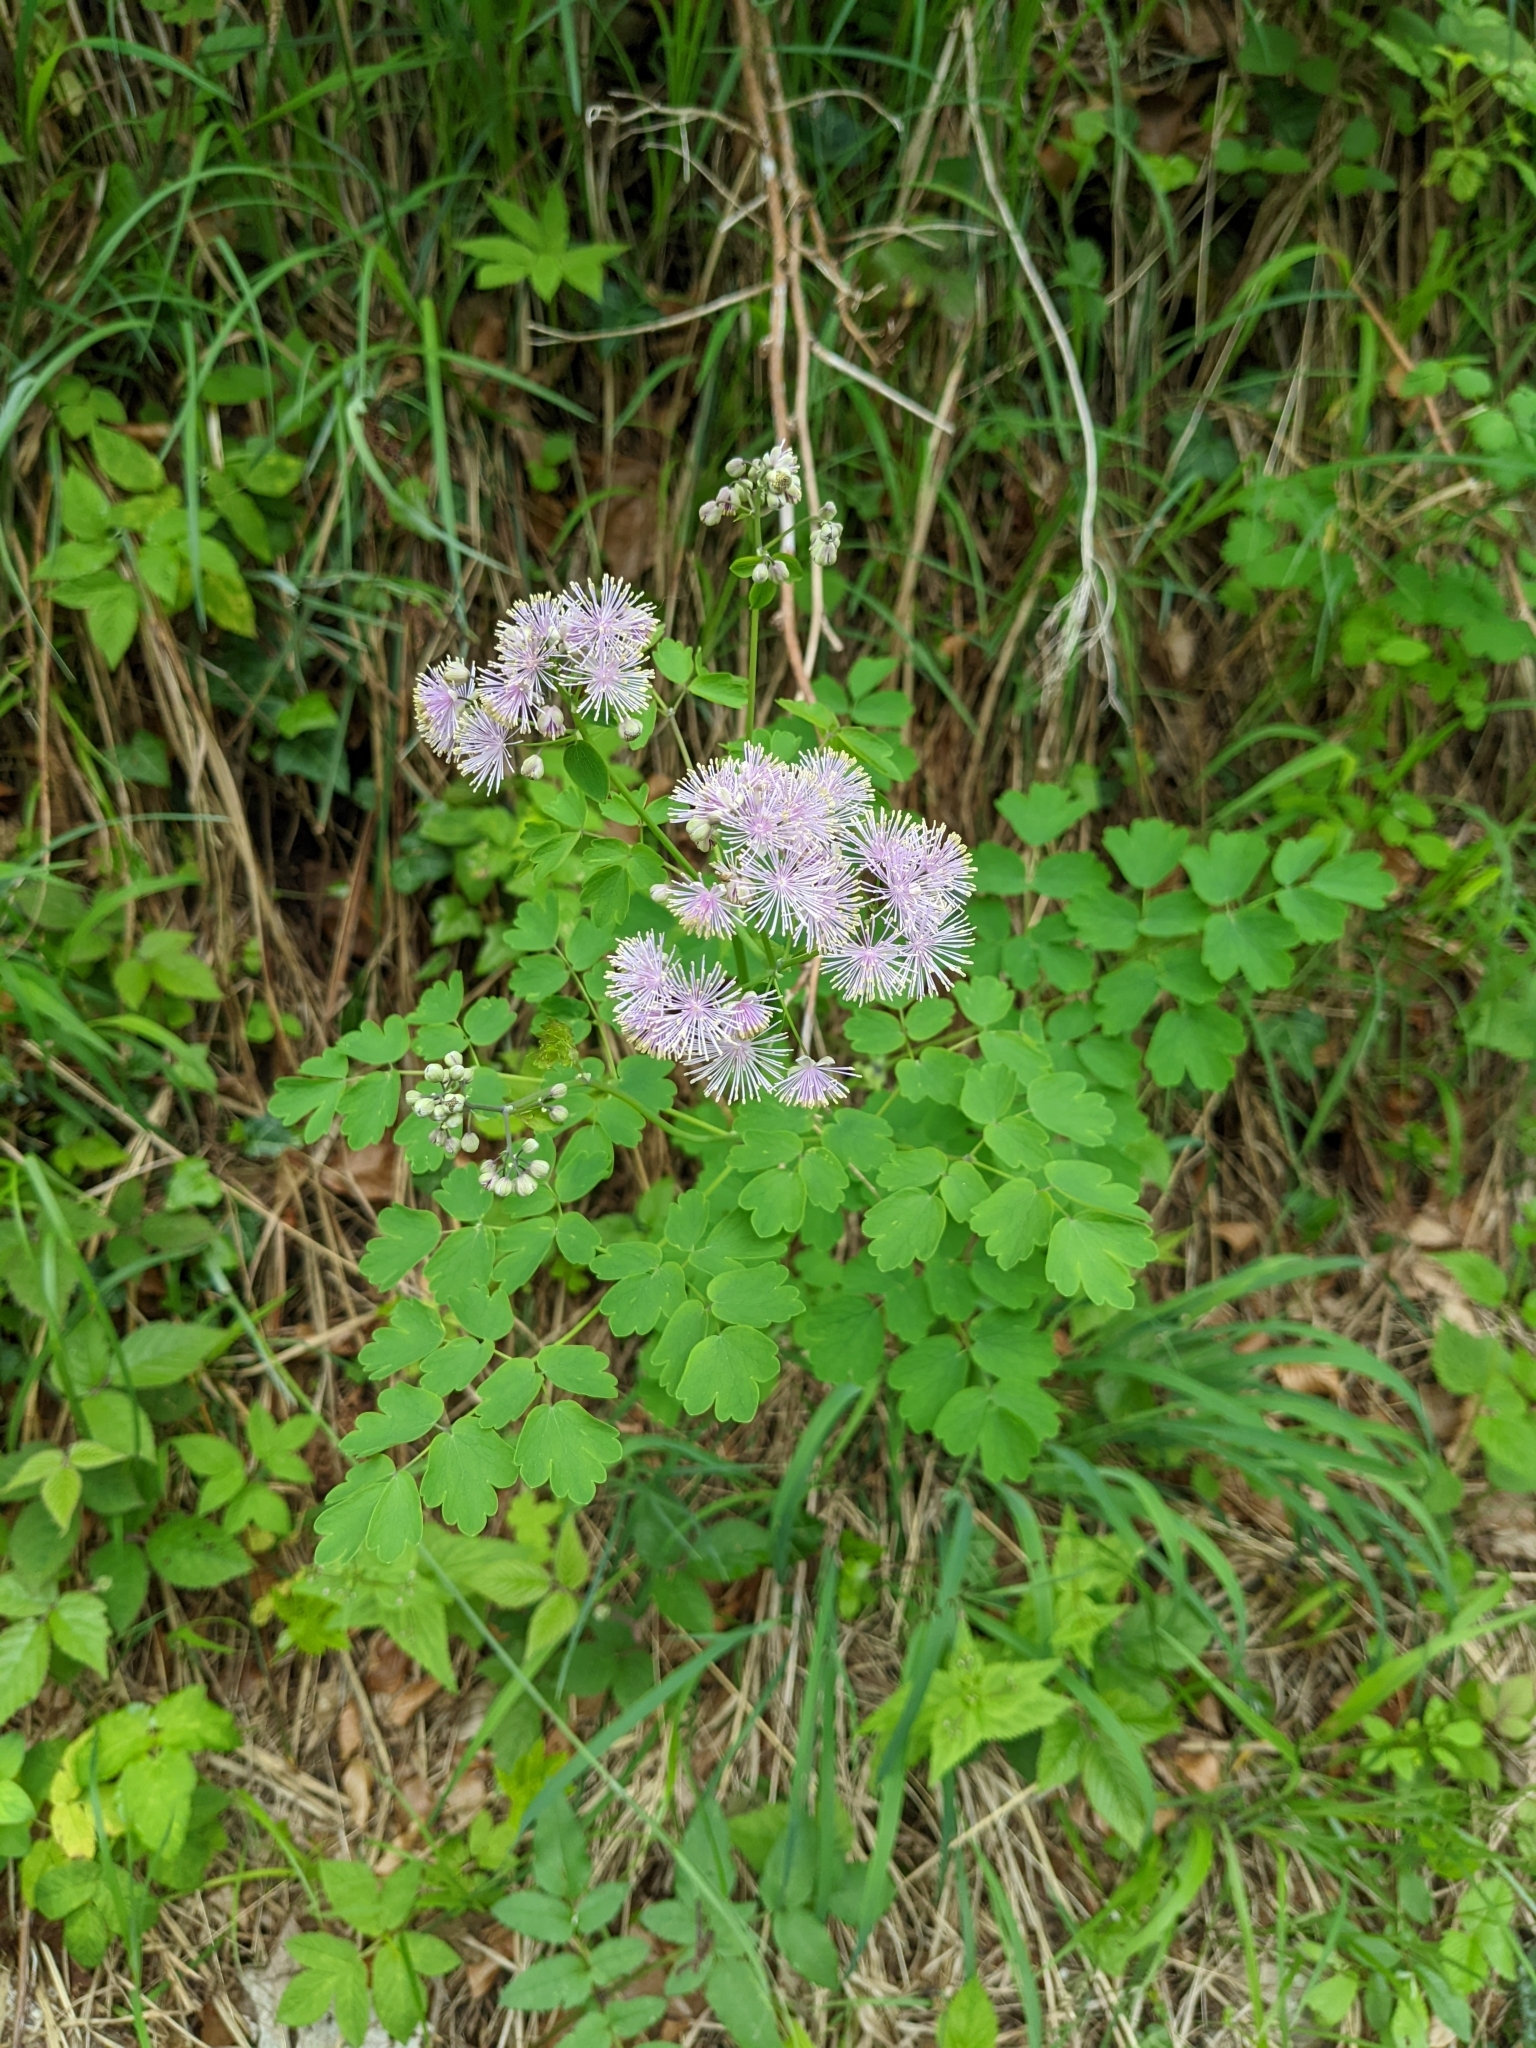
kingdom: Plantae
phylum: Tracheophyta
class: Magnoliopsida
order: Ranunculales
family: Ranunculaceae
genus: Thalictrum
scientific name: Thalictrum aquilegiifolium
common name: French meadow-rue
